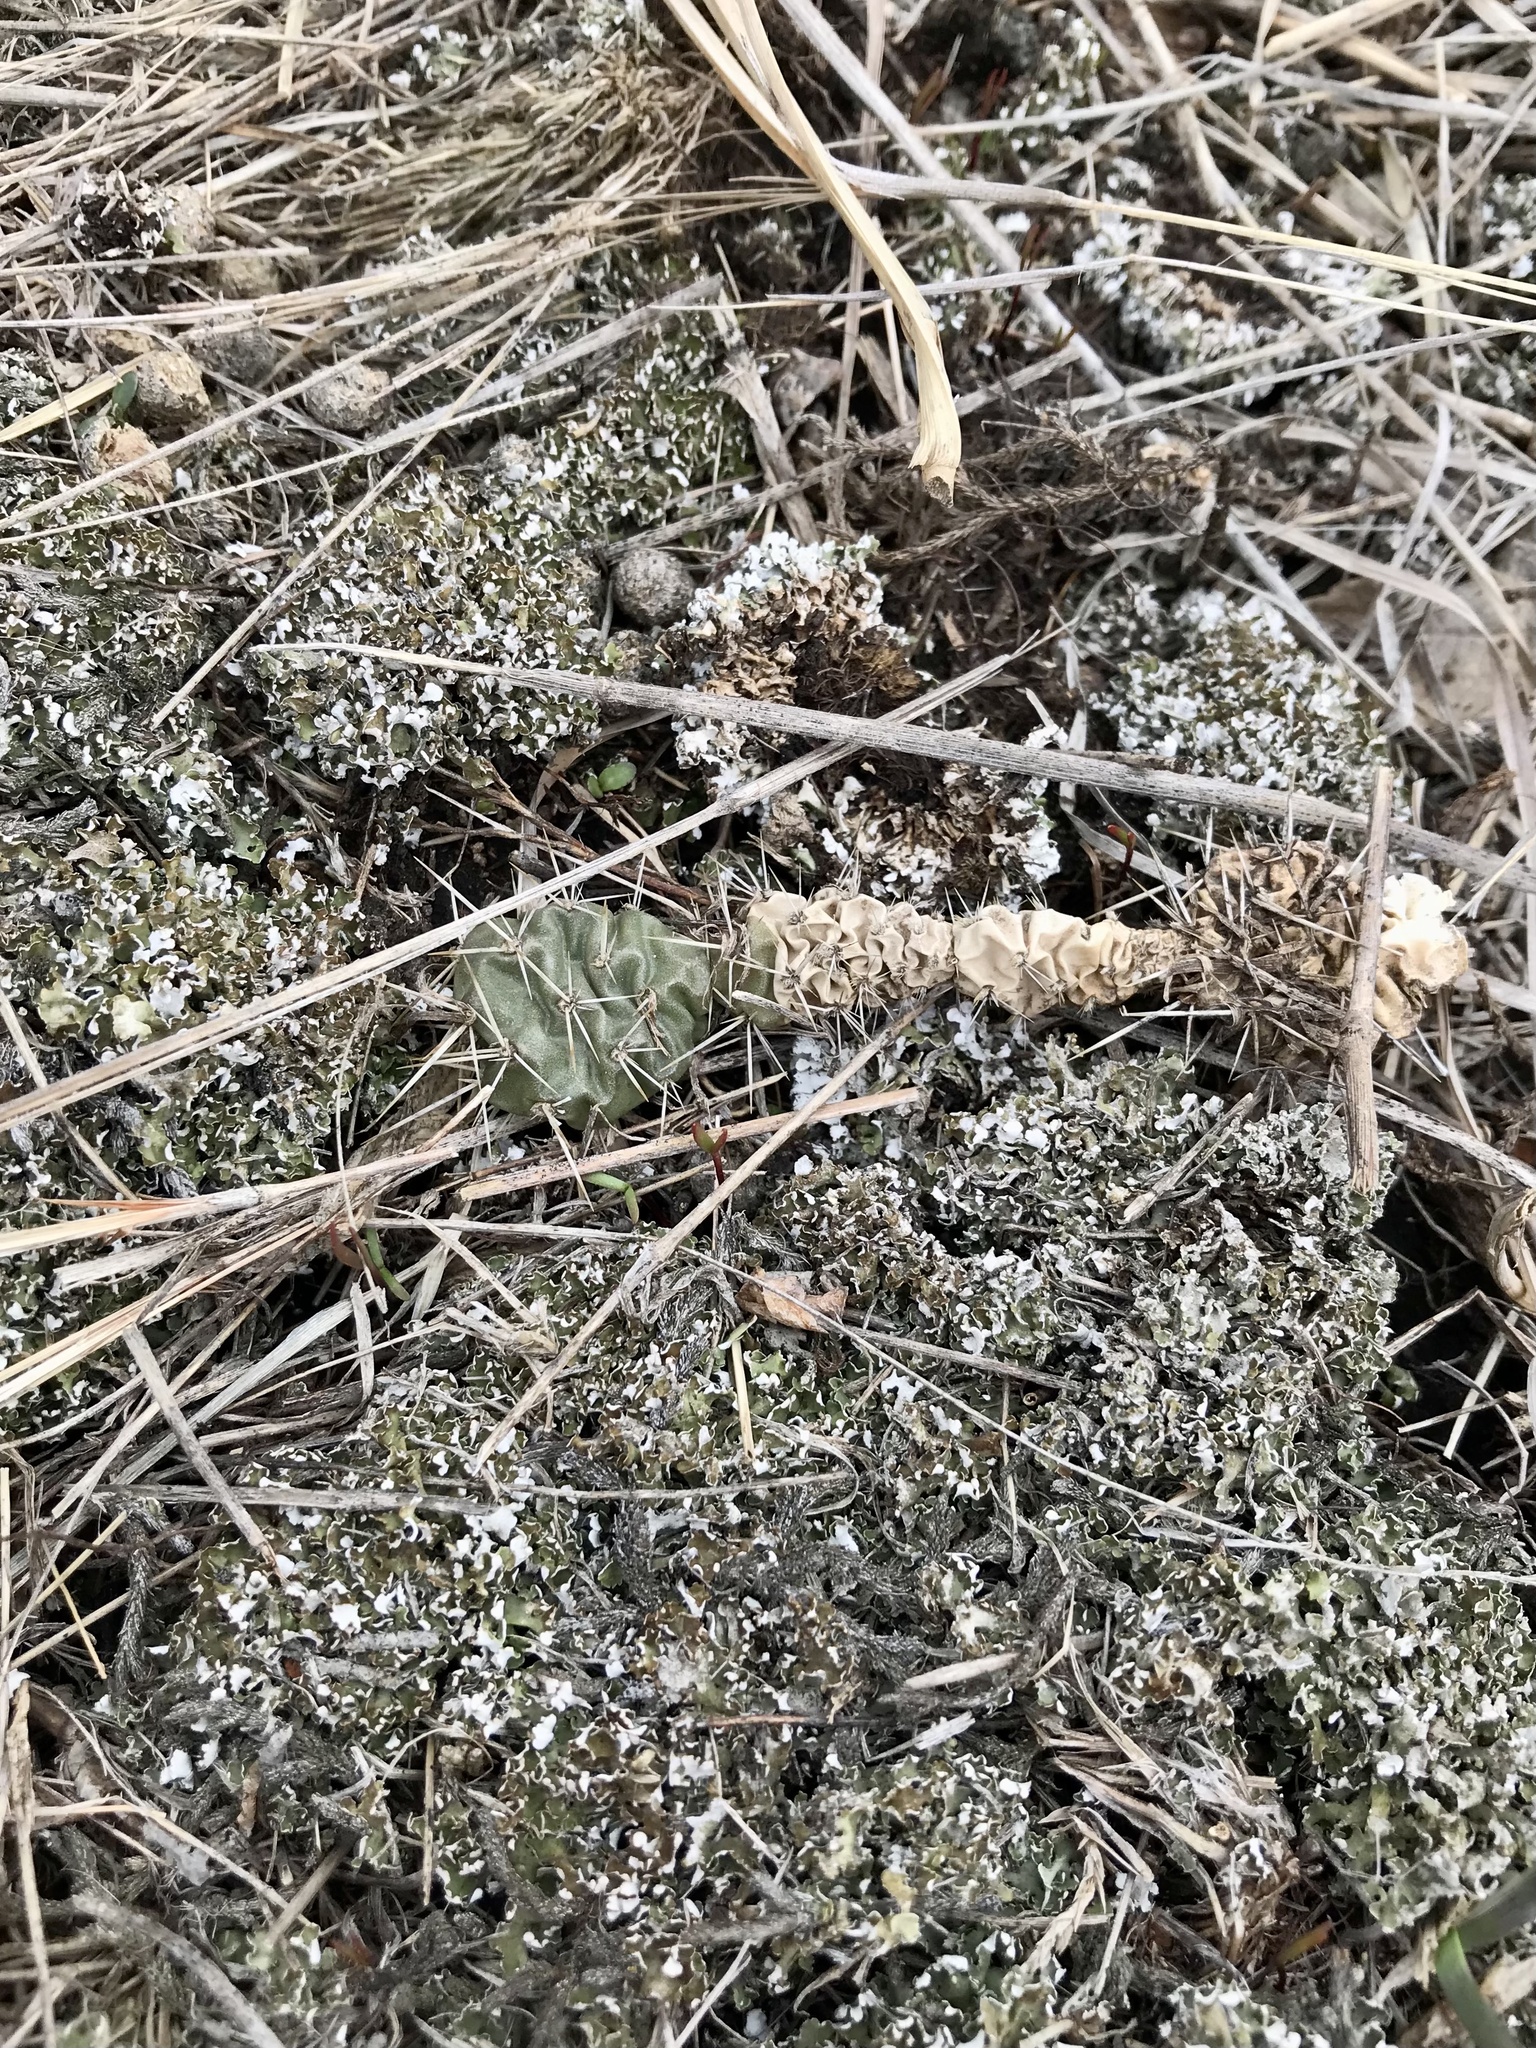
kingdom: Plantae
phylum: Tracheophyta
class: Magnoliopsida
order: Caryophyllales
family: Cactaceae
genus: Opuntia
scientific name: Opuntia fragilis
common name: Brittle cactus
